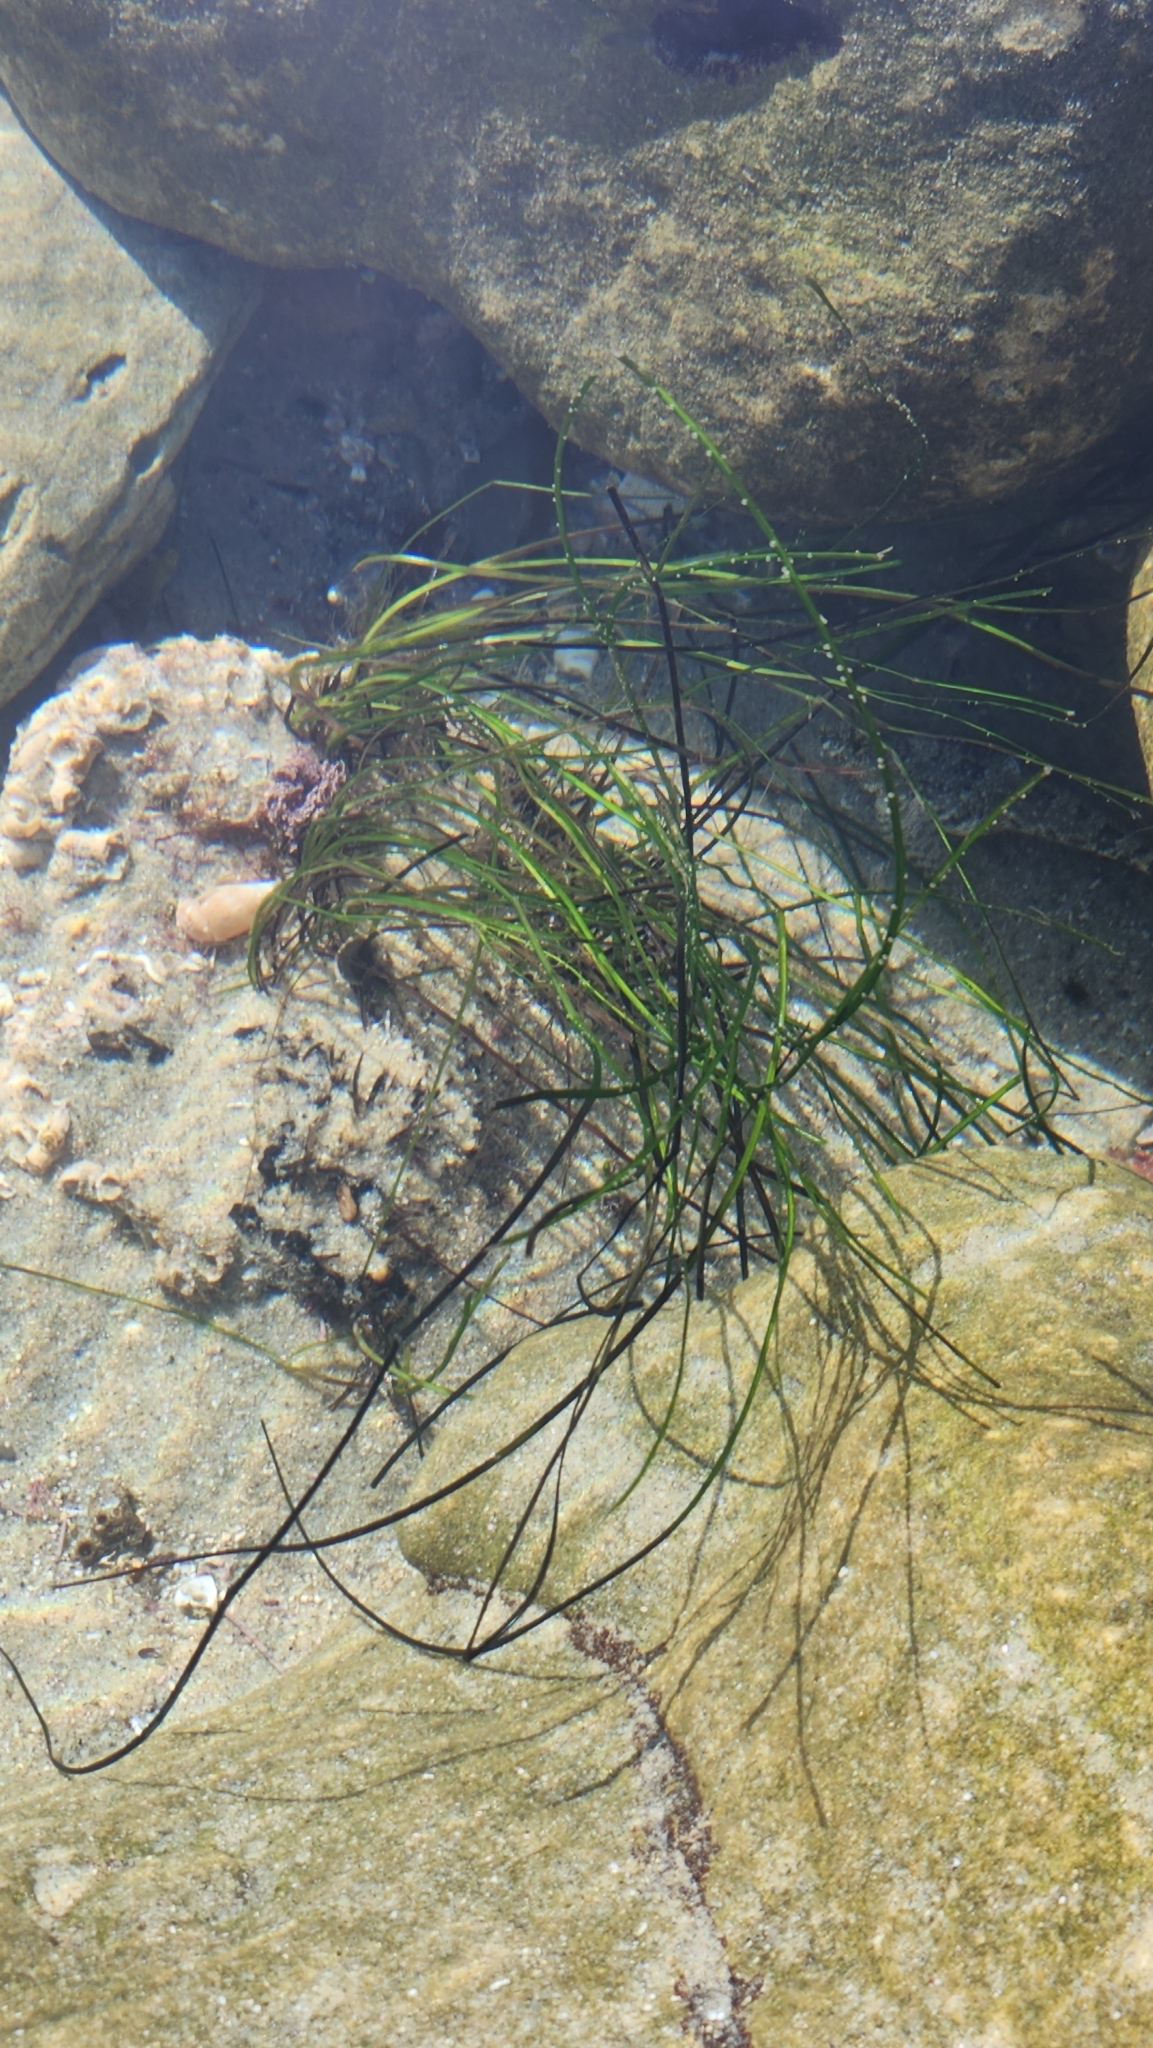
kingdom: Plantae
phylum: Tracheophyta
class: Liliopsida
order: Alismatales
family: Zosteraceae
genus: Phyllospadix
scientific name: Phyllospadix torreyi
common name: Surfgrass
